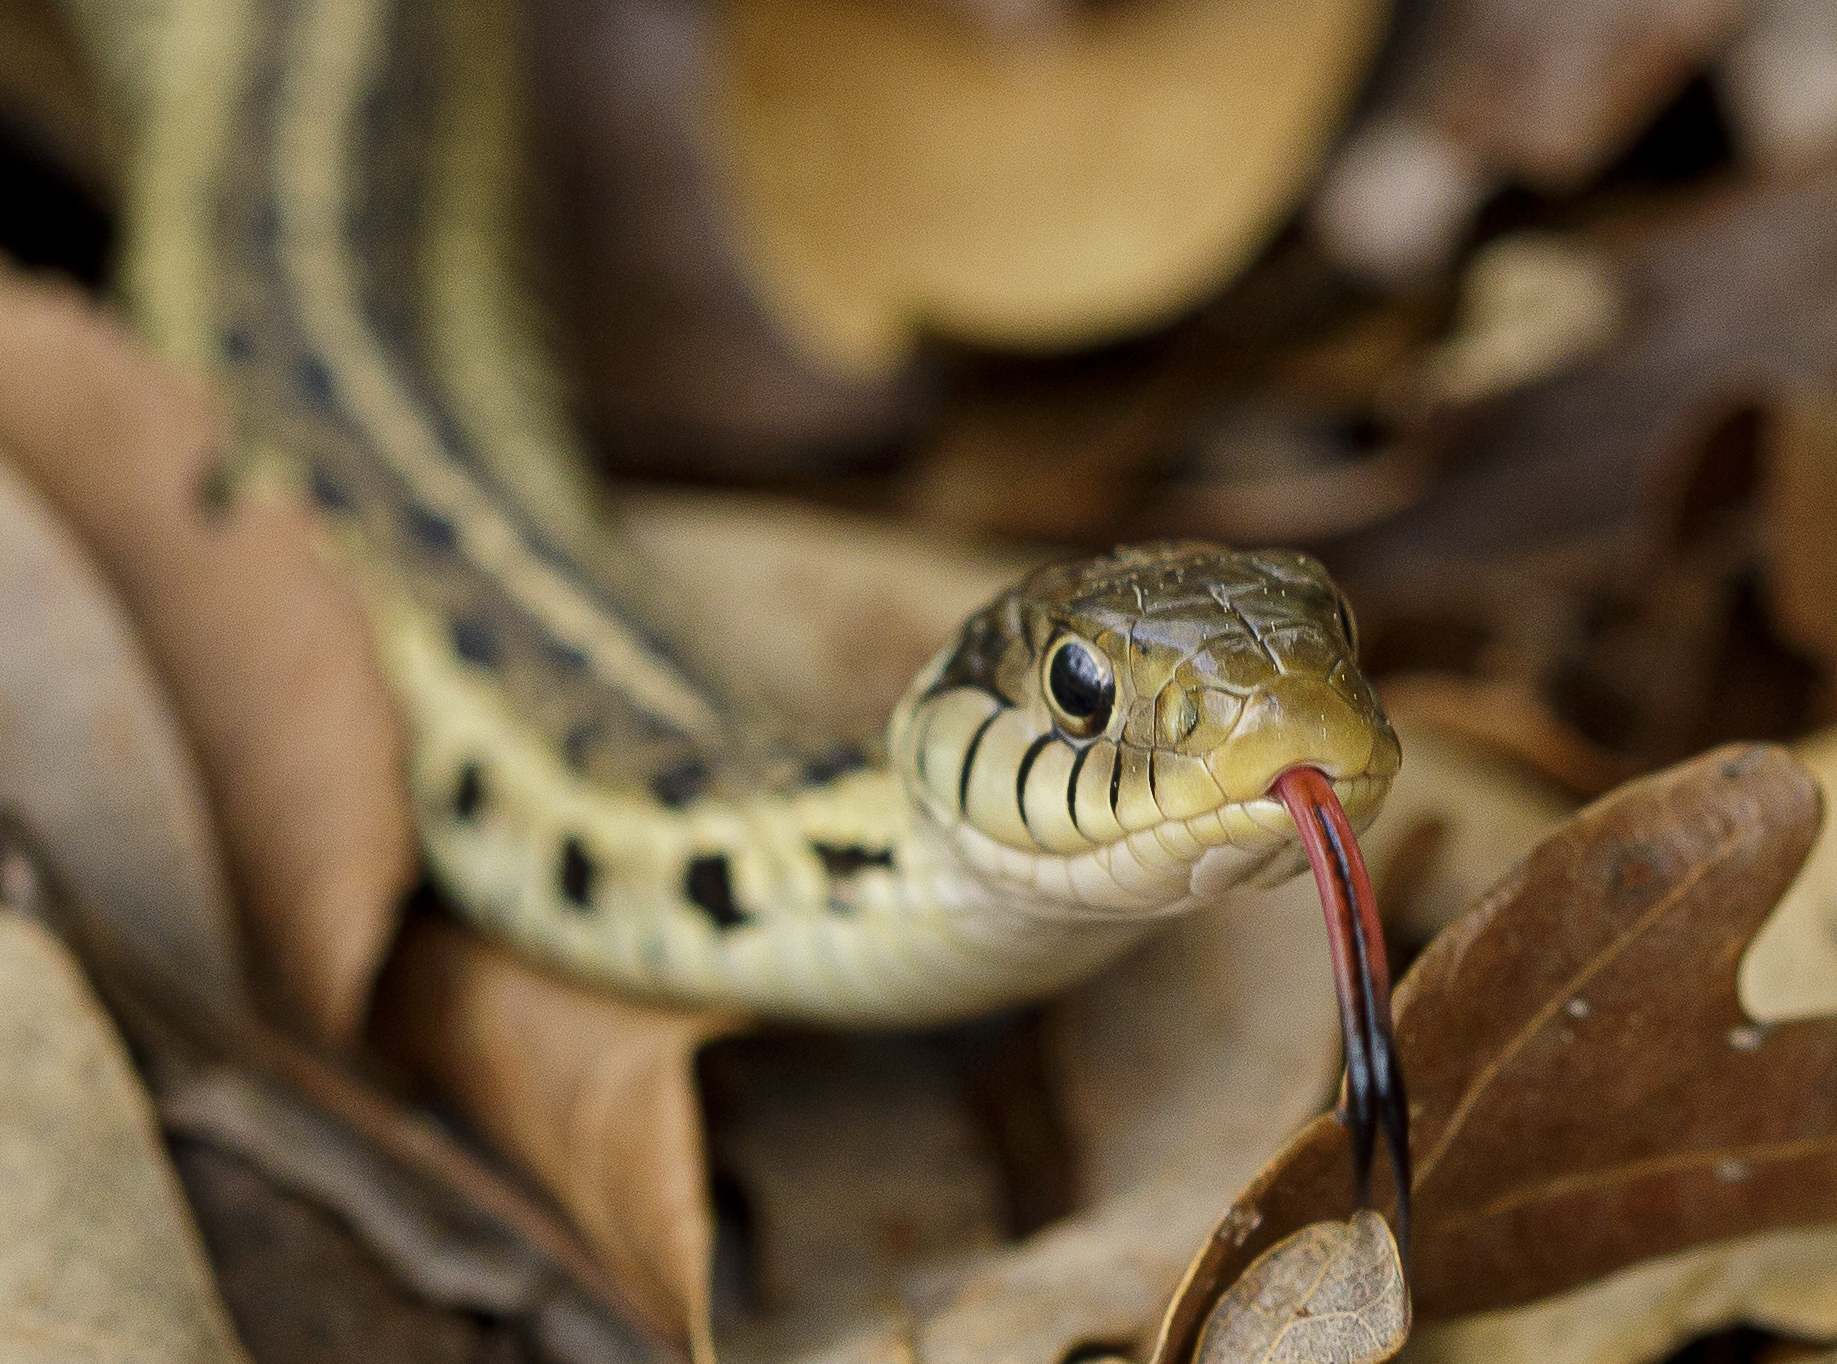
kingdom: Animalia
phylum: Chordata
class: Squamata
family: Colubridae
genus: Thamnophis
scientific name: Thamnophis sirtalis
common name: Common garter snake
